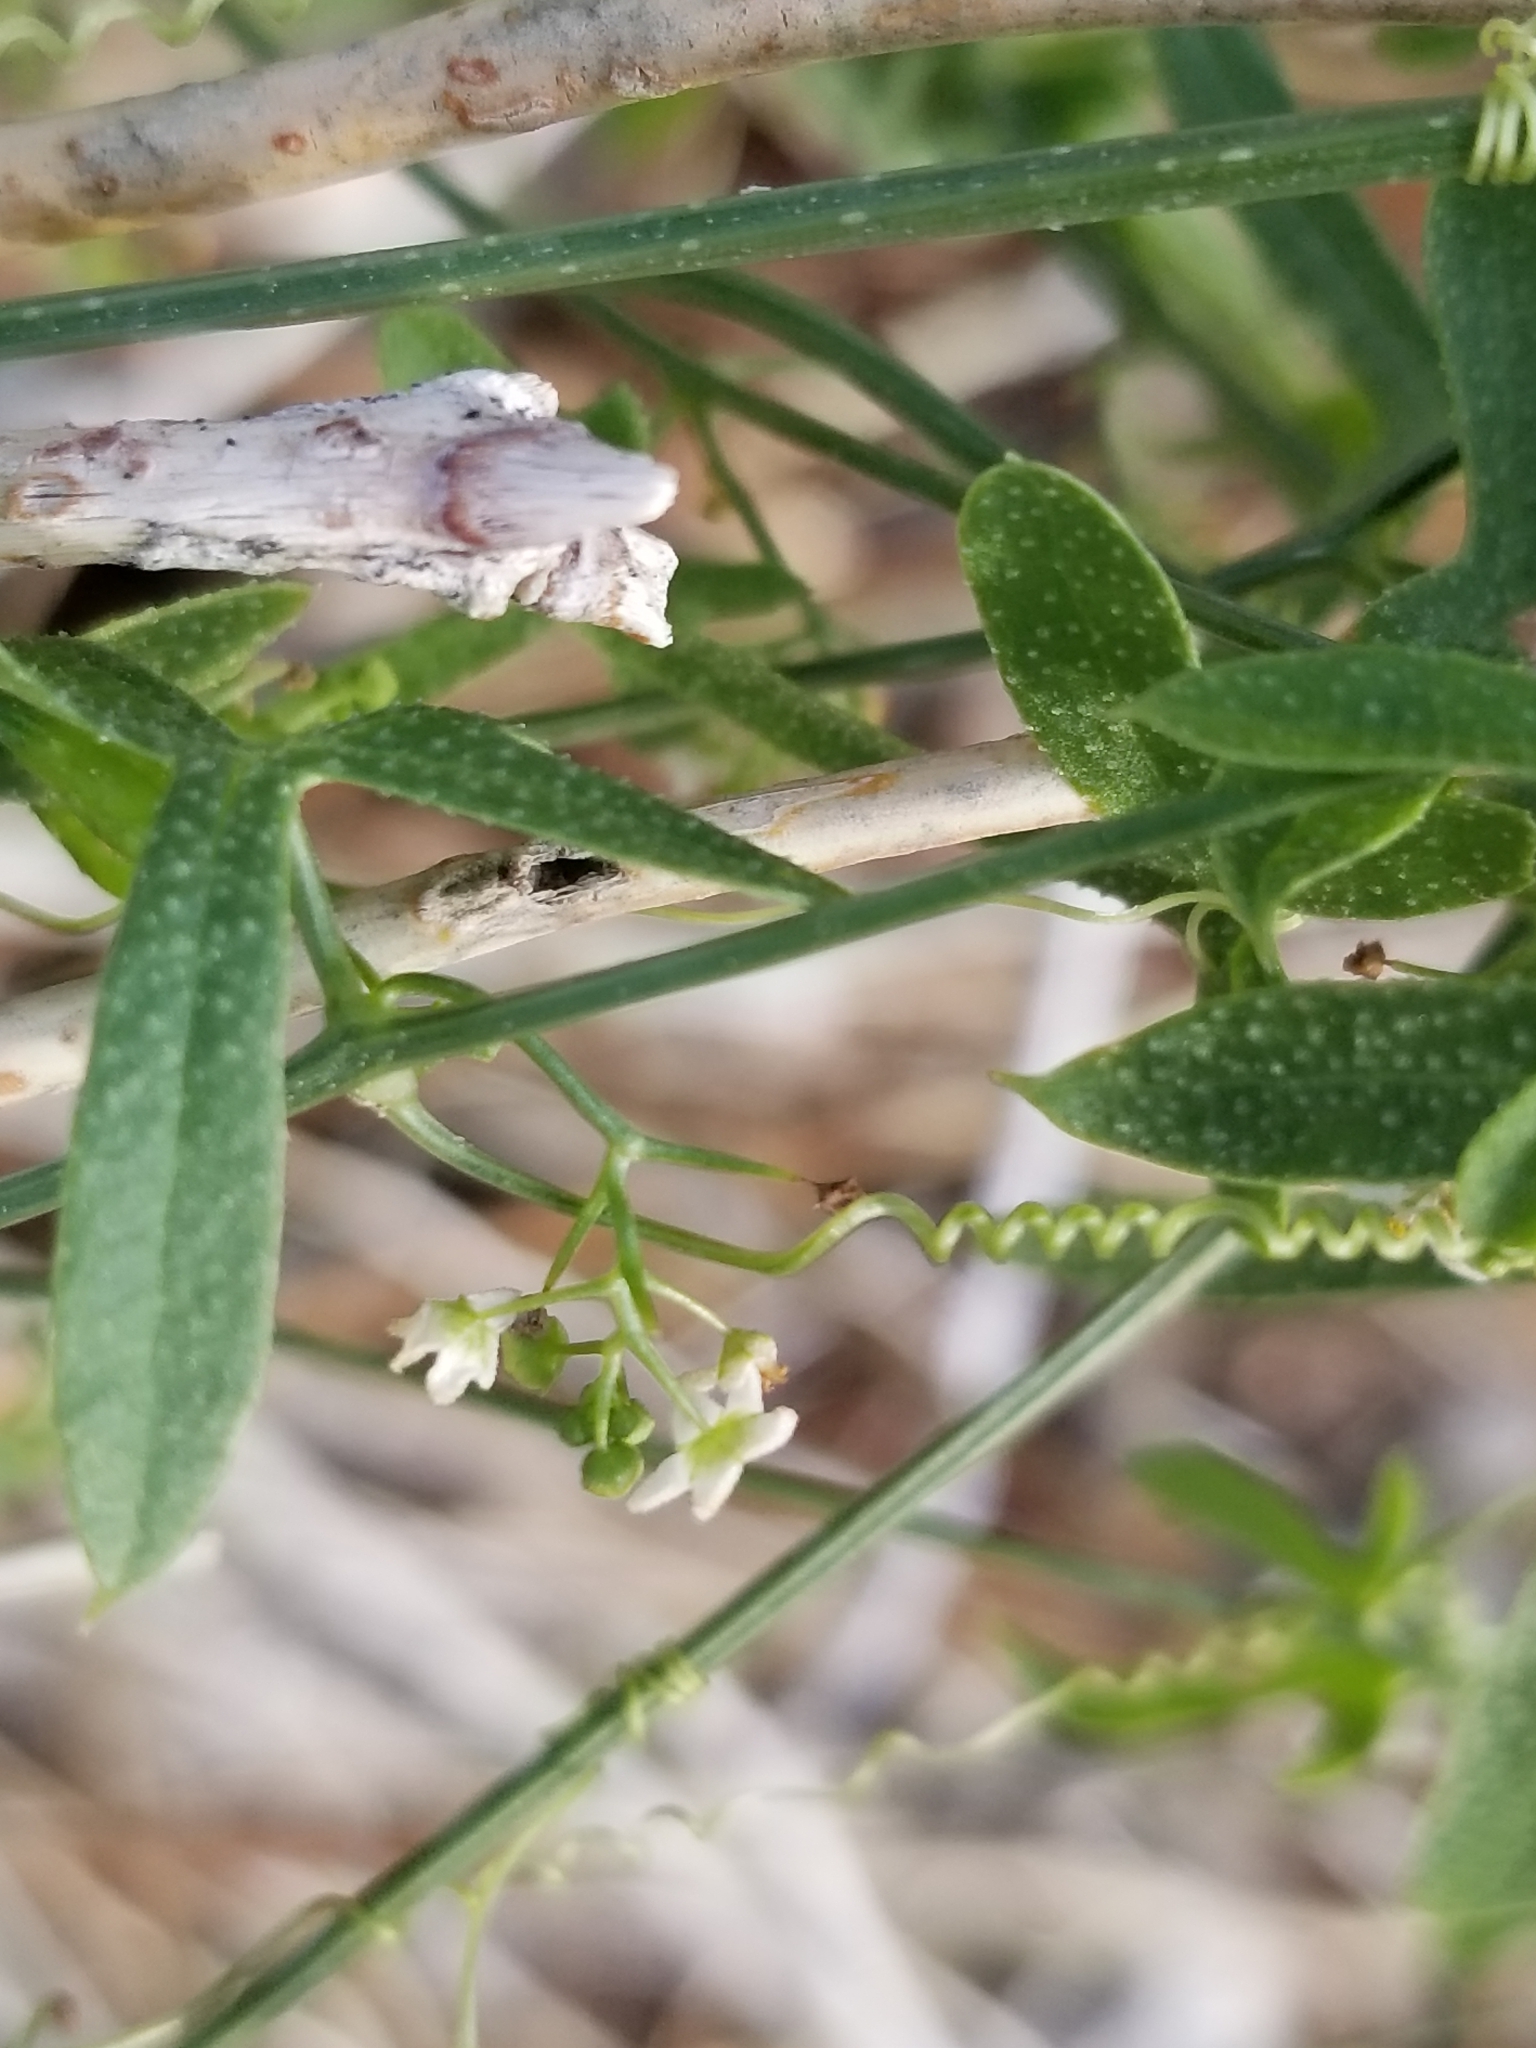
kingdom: Plantae
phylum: Tracheophyta
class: Magnoliopsida
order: Cucurbitales
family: Cucurbitaceae
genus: Echinopepon
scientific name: Echinopepon bigelovii
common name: Desert starvine
